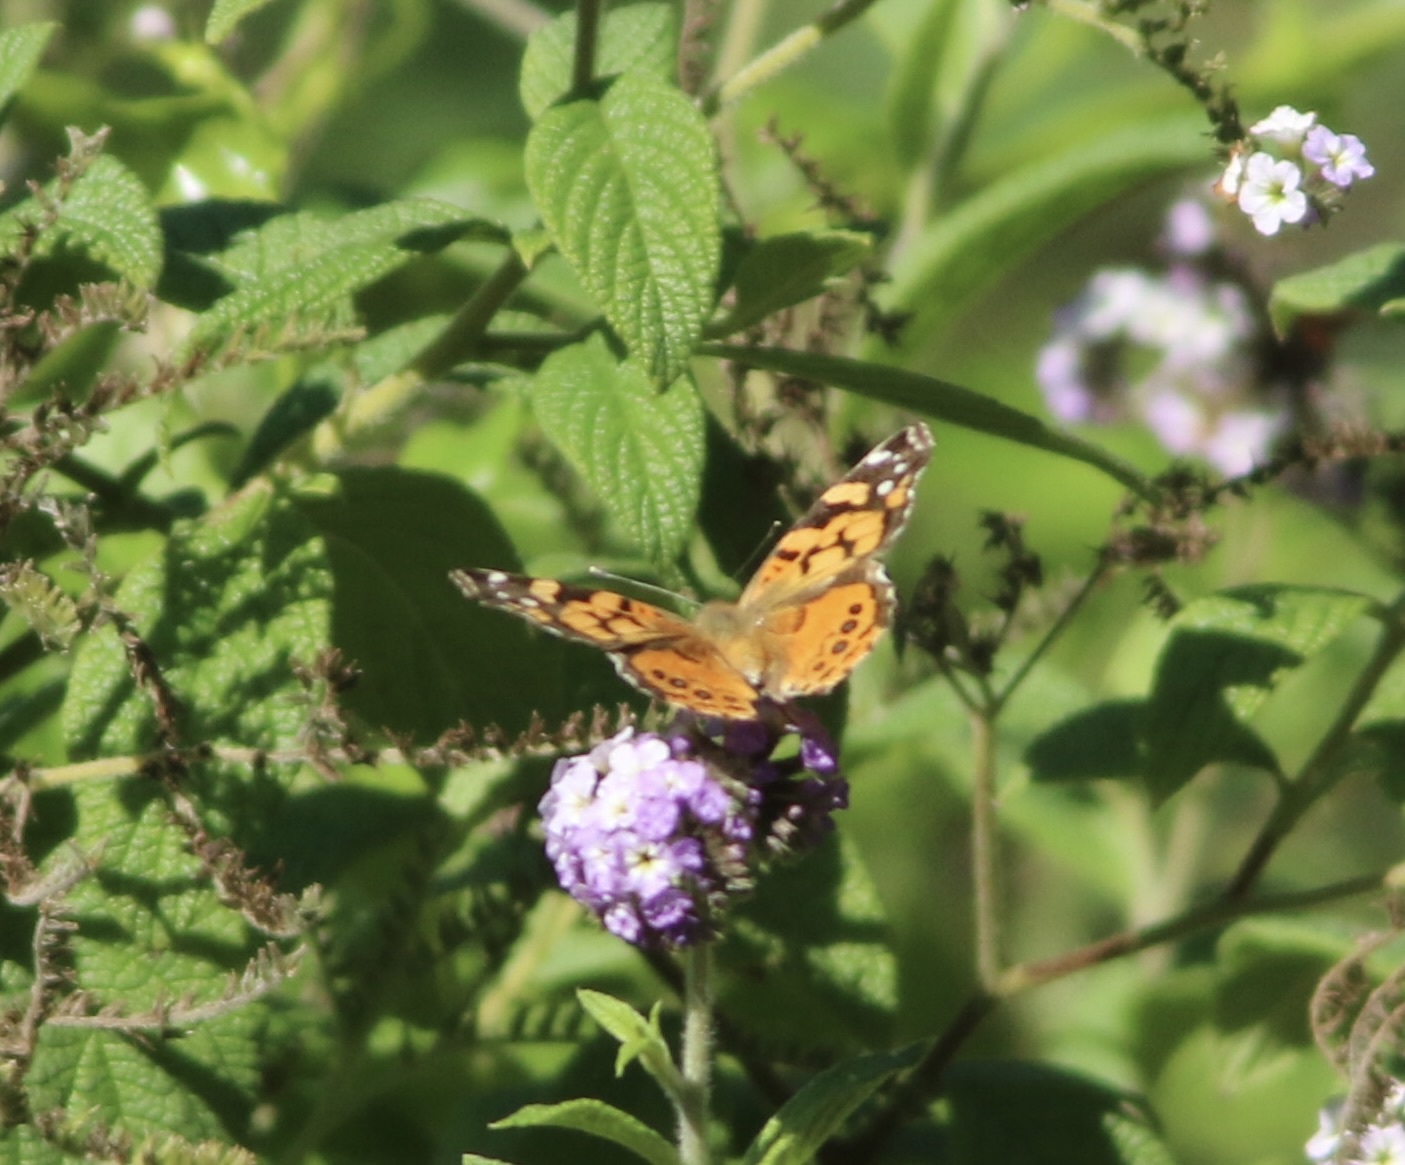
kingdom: Animalia
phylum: Arthropoda
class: Insecta
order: Lepidoptera
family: Nymphalidae
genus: Vanessa
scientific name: Vanessa annabella
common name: West coast lady
